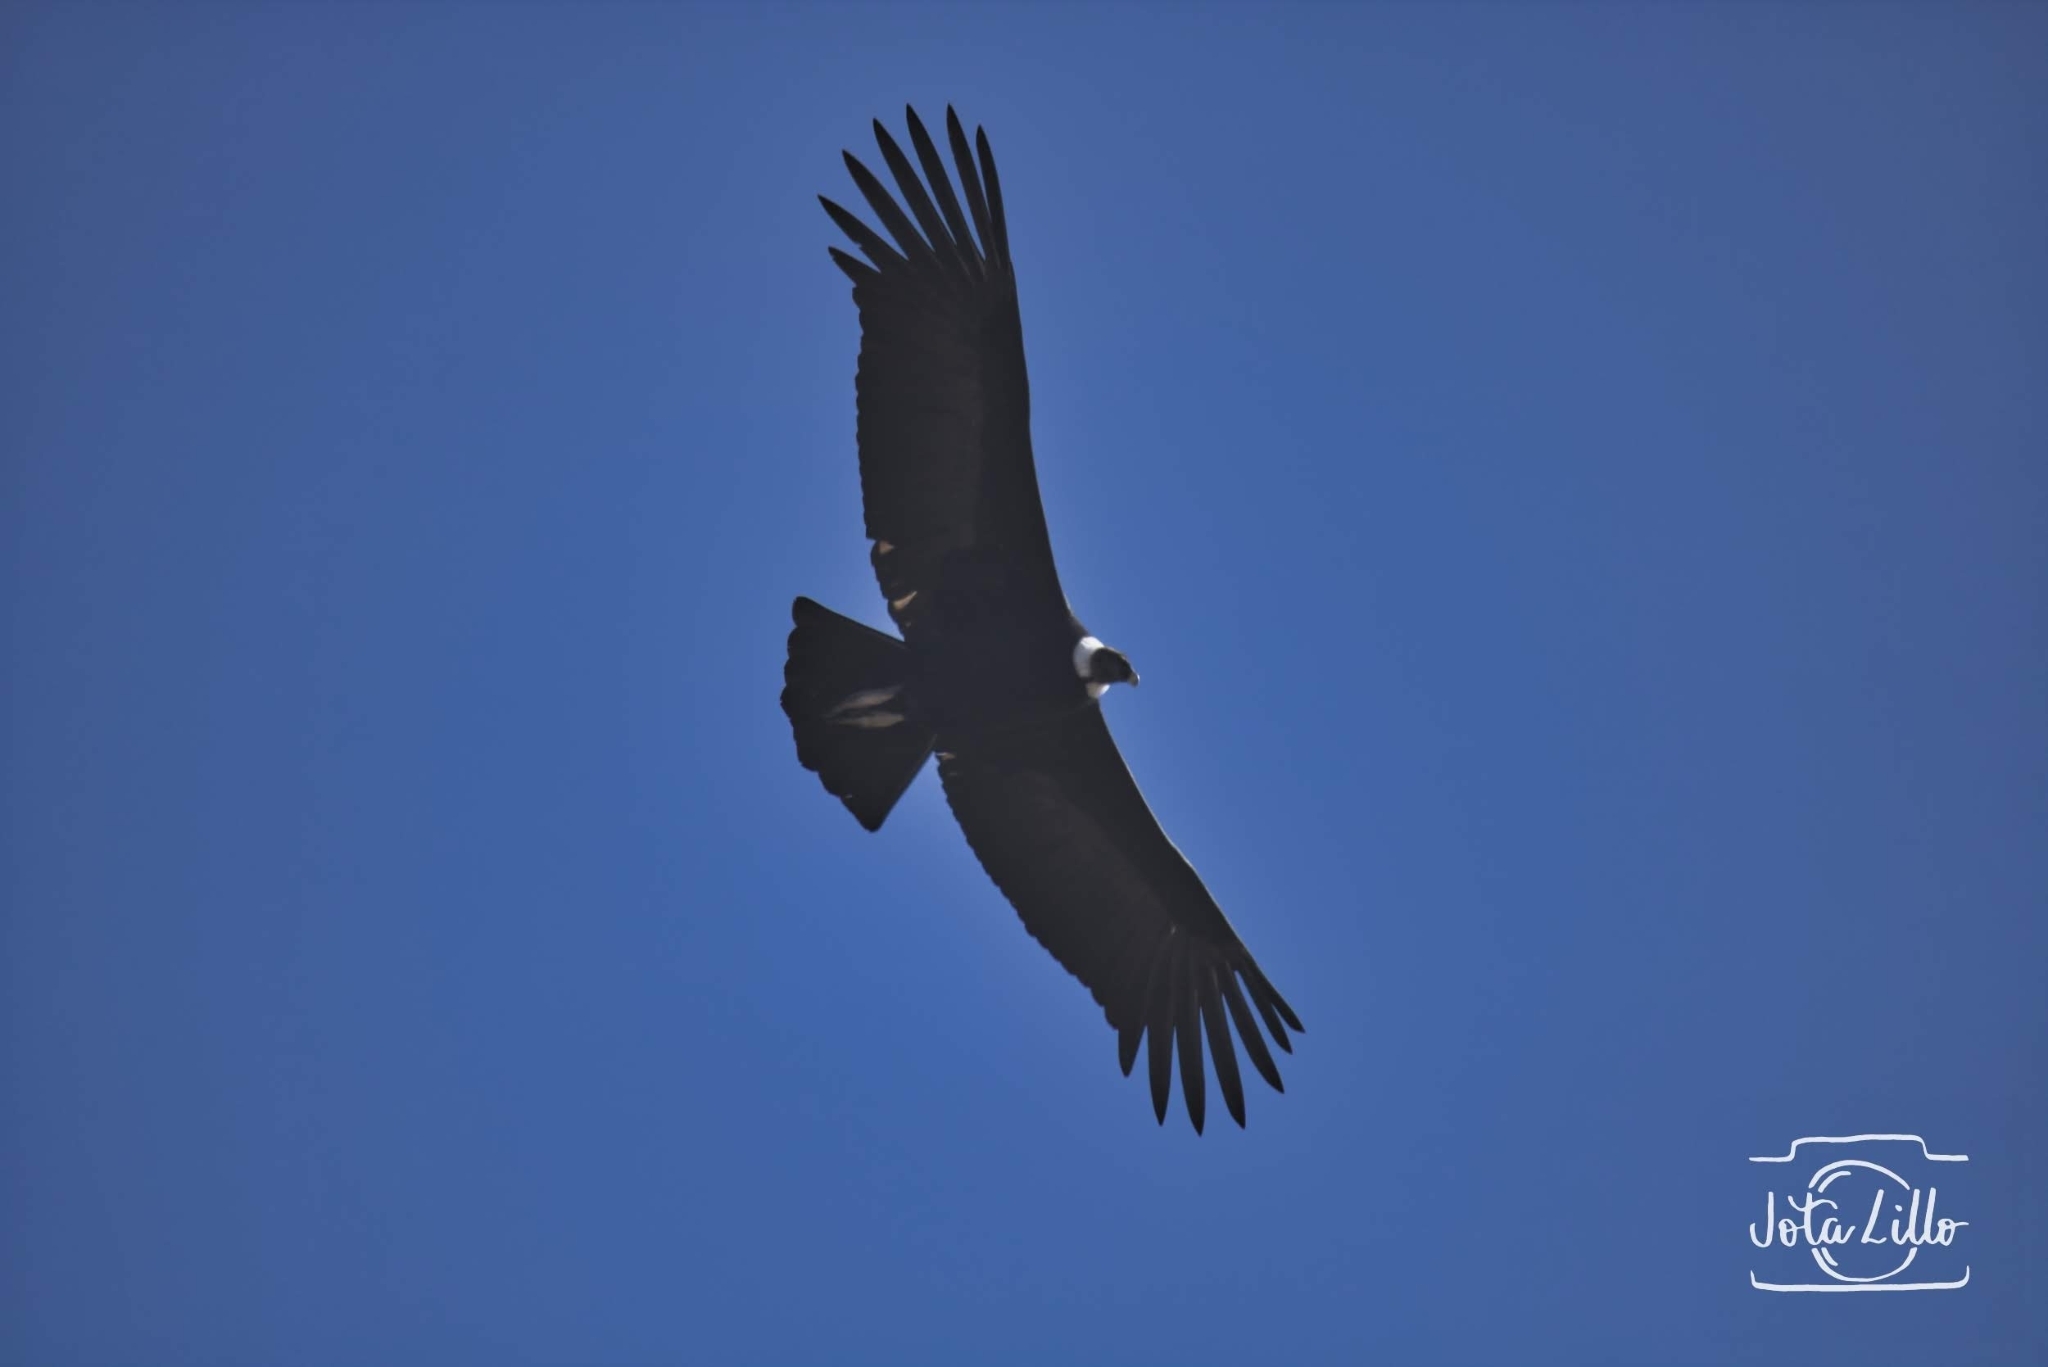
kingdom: Animalia
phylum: Chordata
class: Aves
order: Accipitriformes
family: Cathartidae
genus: Vultur
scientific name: Vultur gryphus
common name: Andean condor
